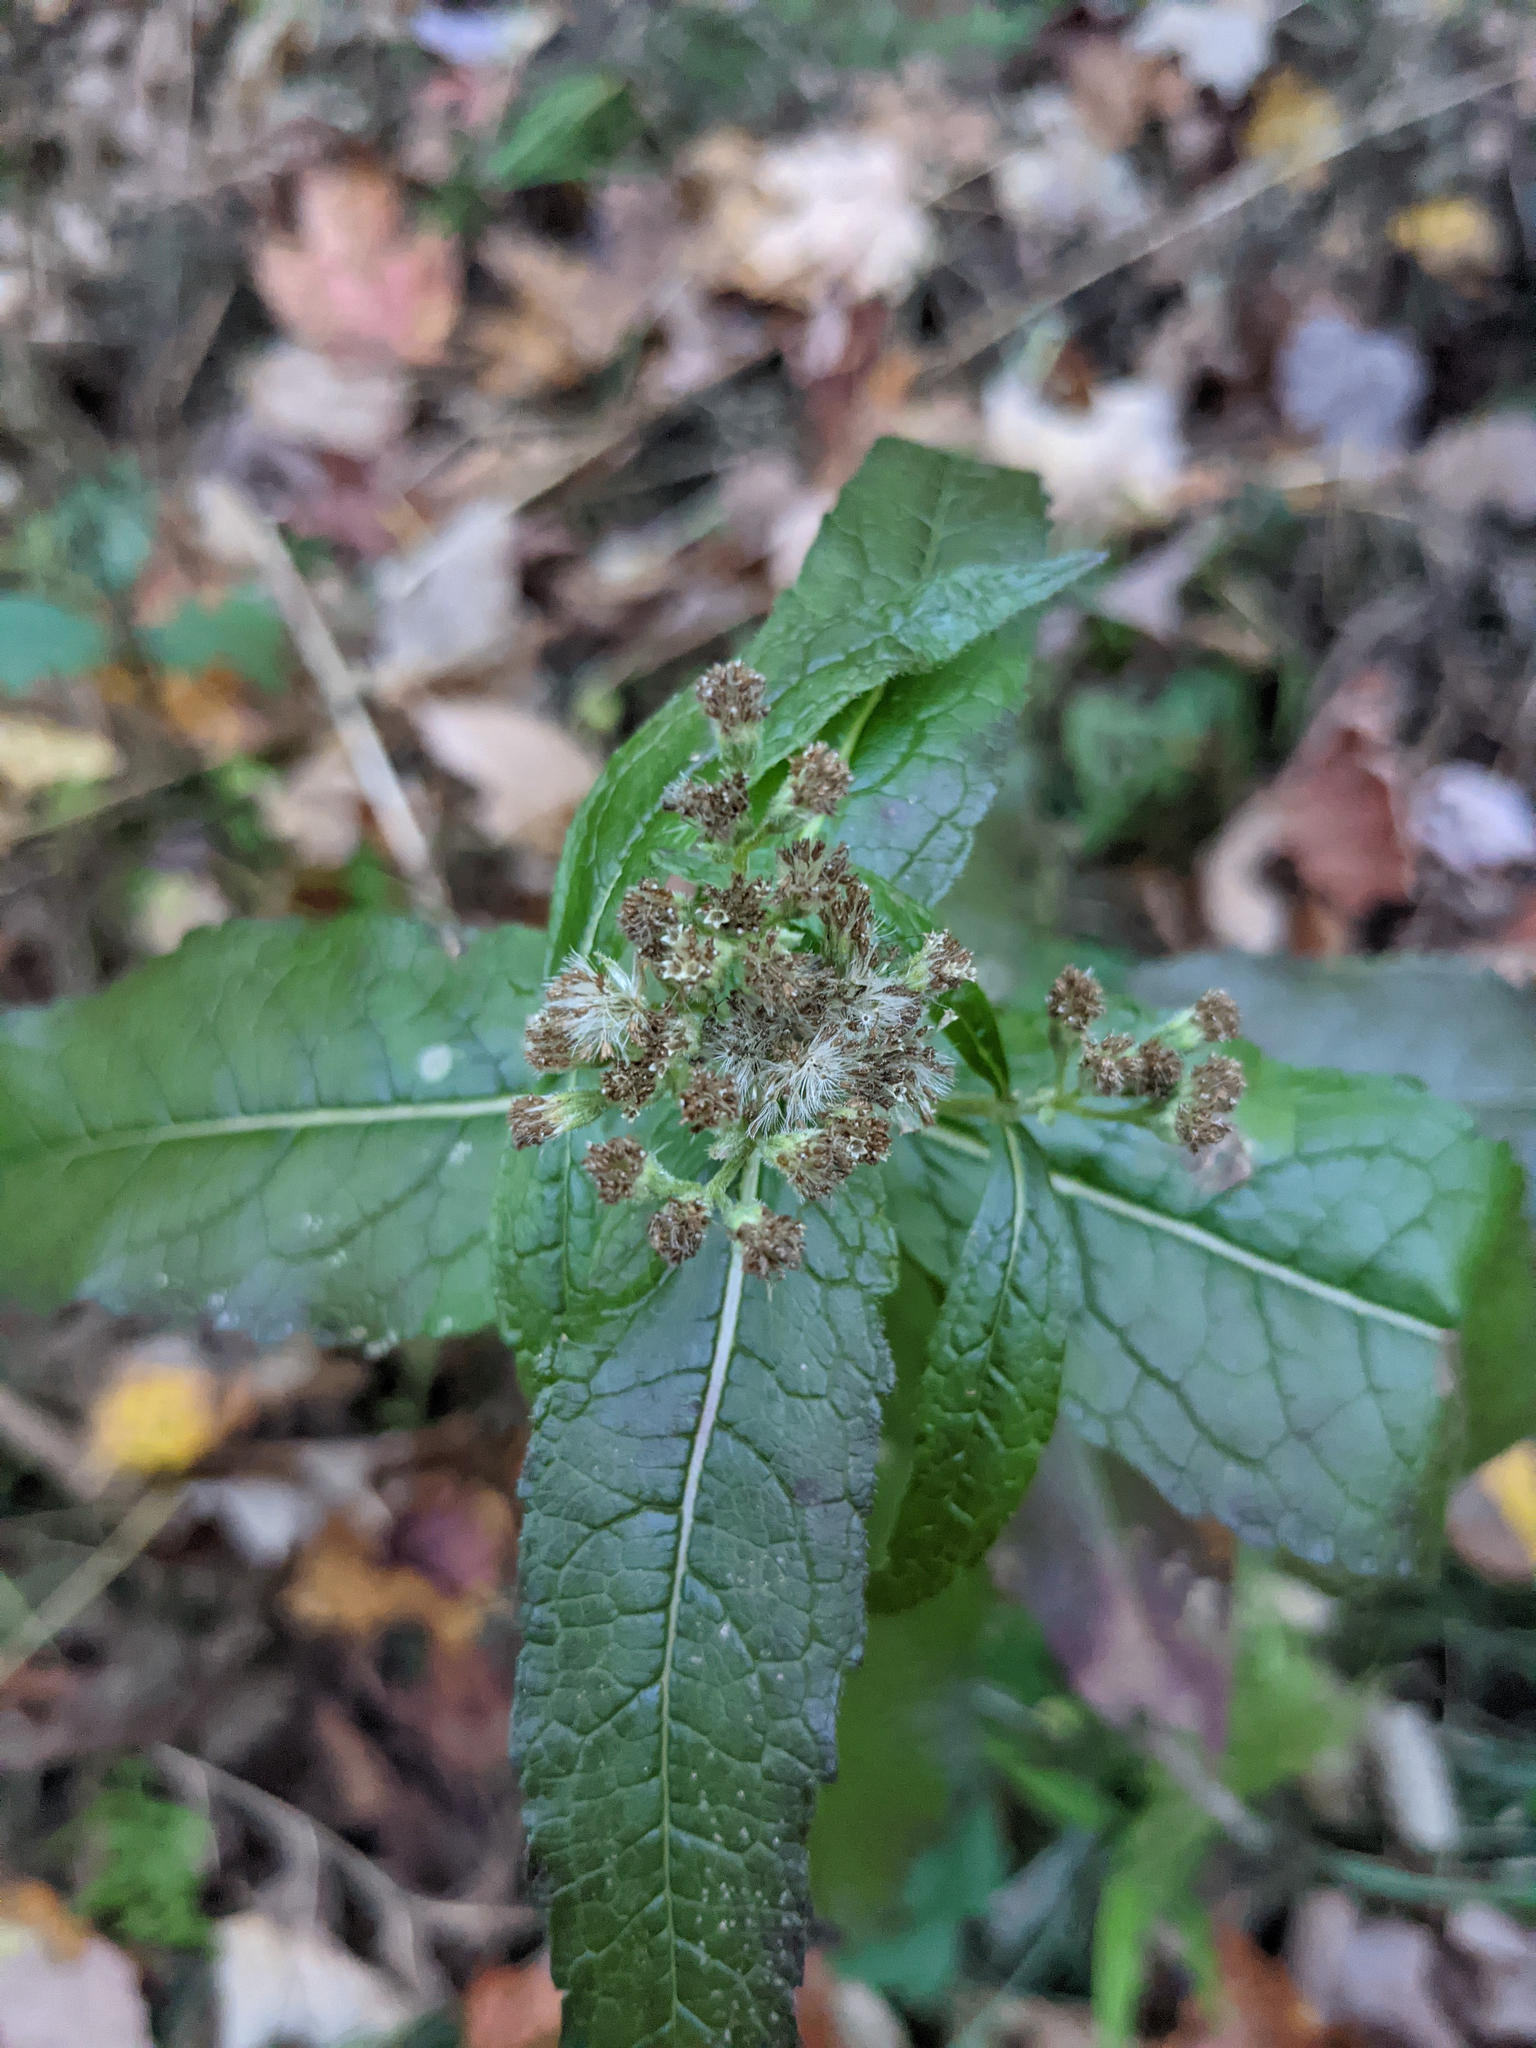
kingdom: Plantae
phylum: Tracheophyta
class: Magnoliopsida
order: Asterales
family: Asteraceae
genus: Eupatorium
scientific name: Eupatorium perfoliatum
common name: Boneset
